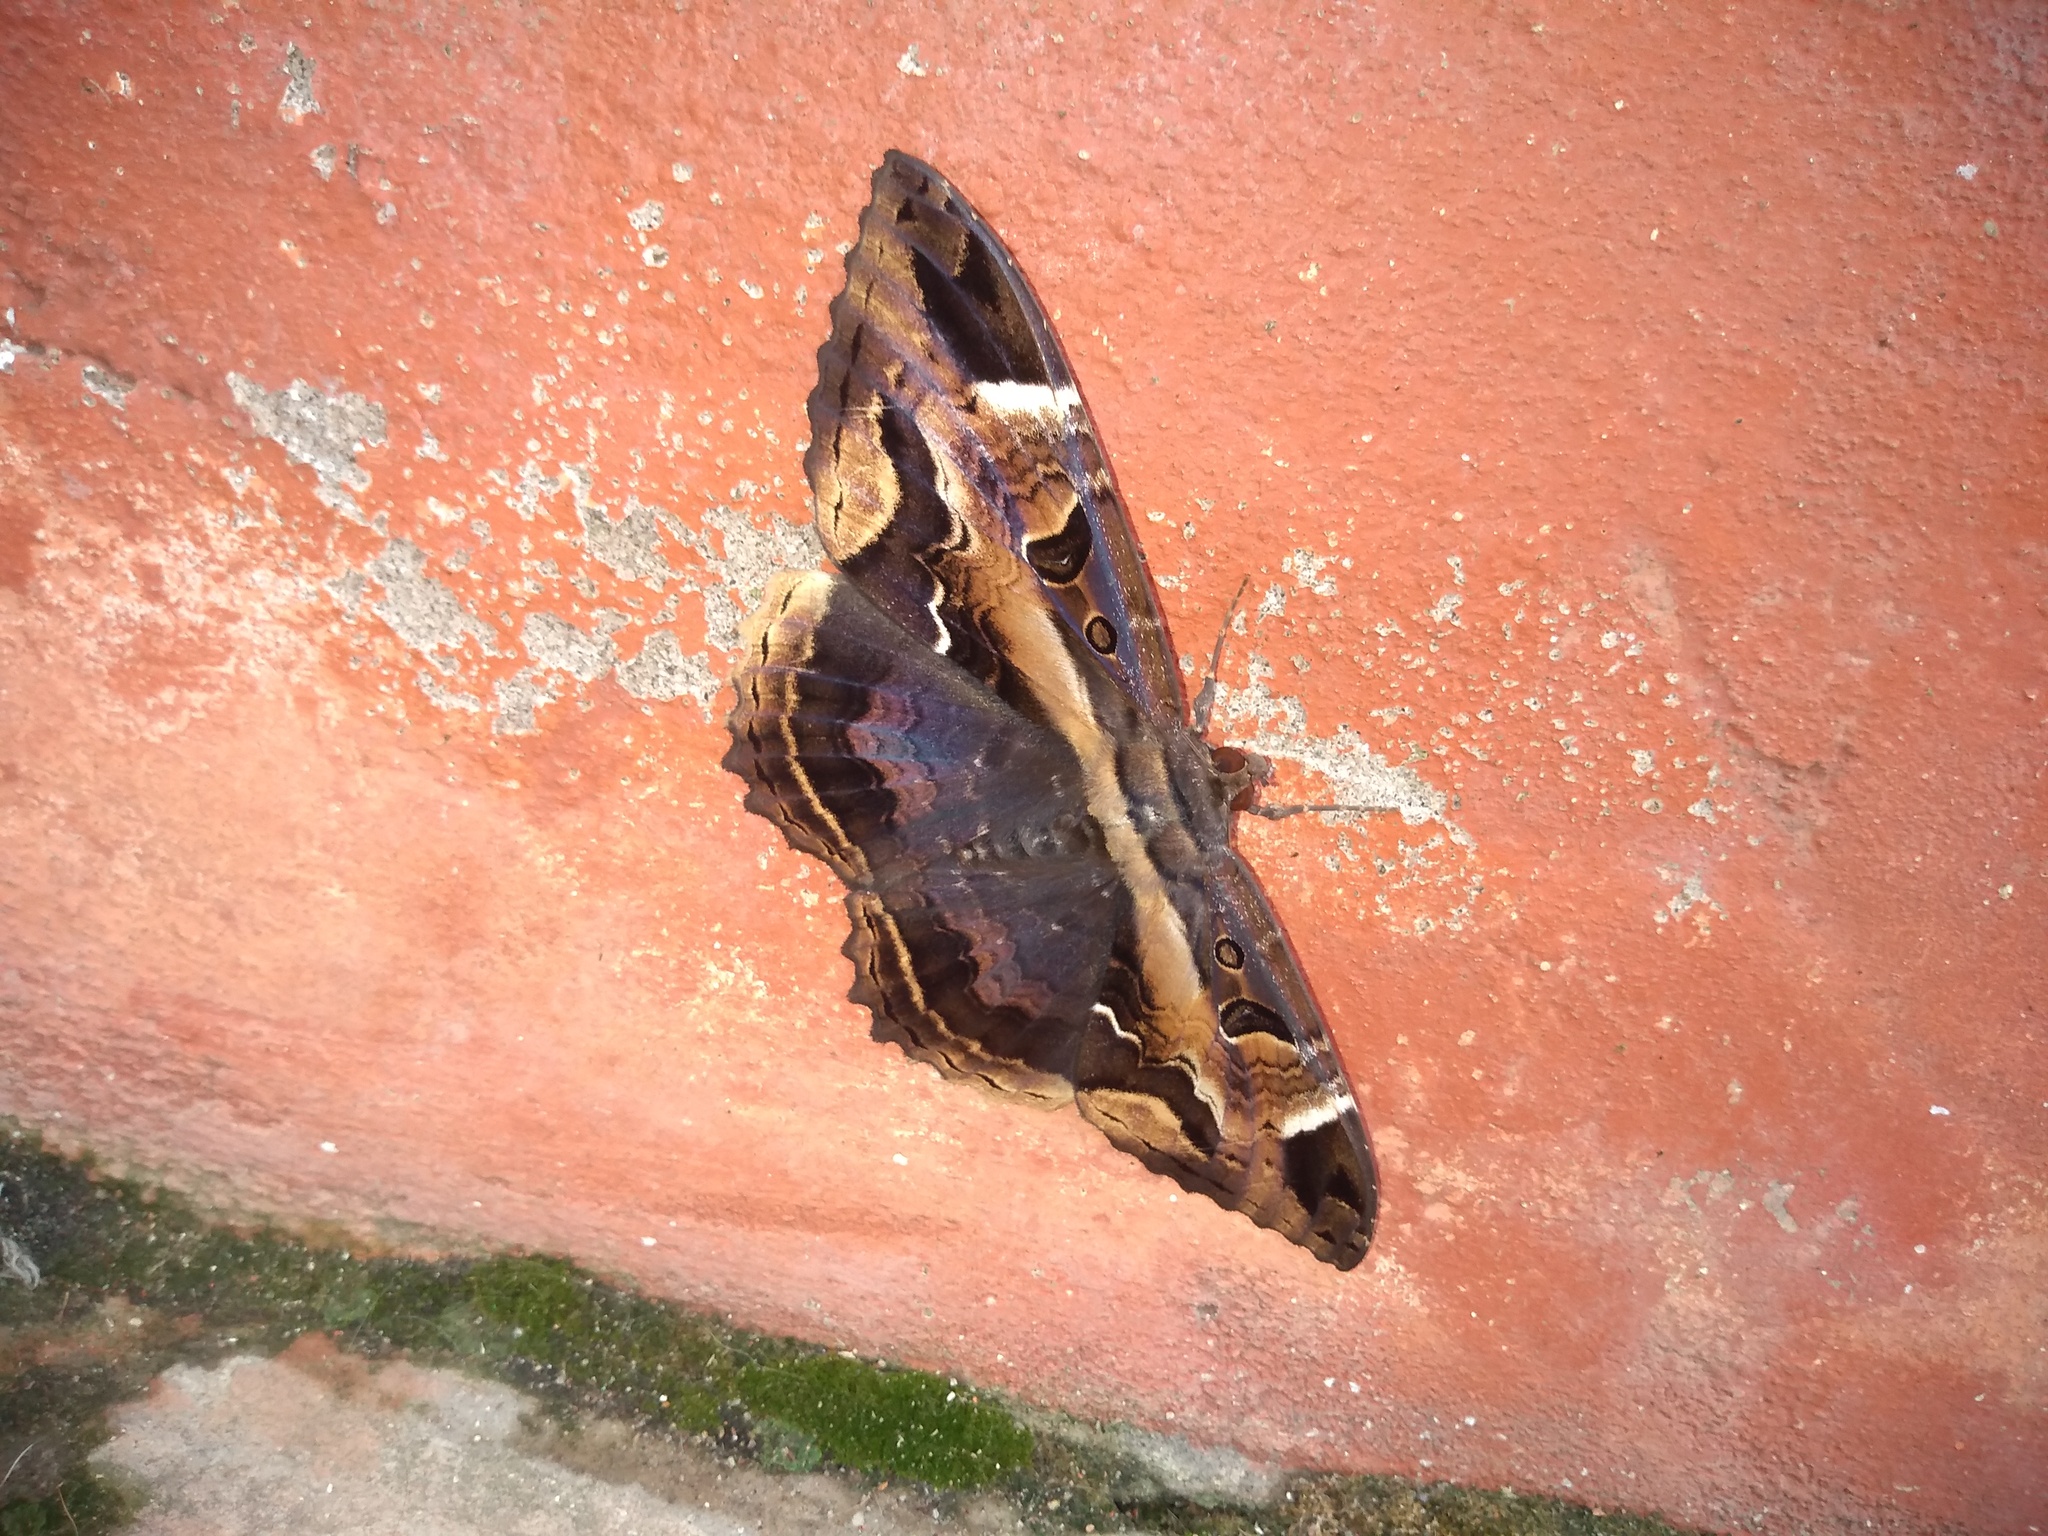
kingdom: Animalia
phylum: Arthropoda
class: Insecta
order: Lepidoptera
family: Erebidae
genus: Feigeria
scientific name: Feigeria herilia
